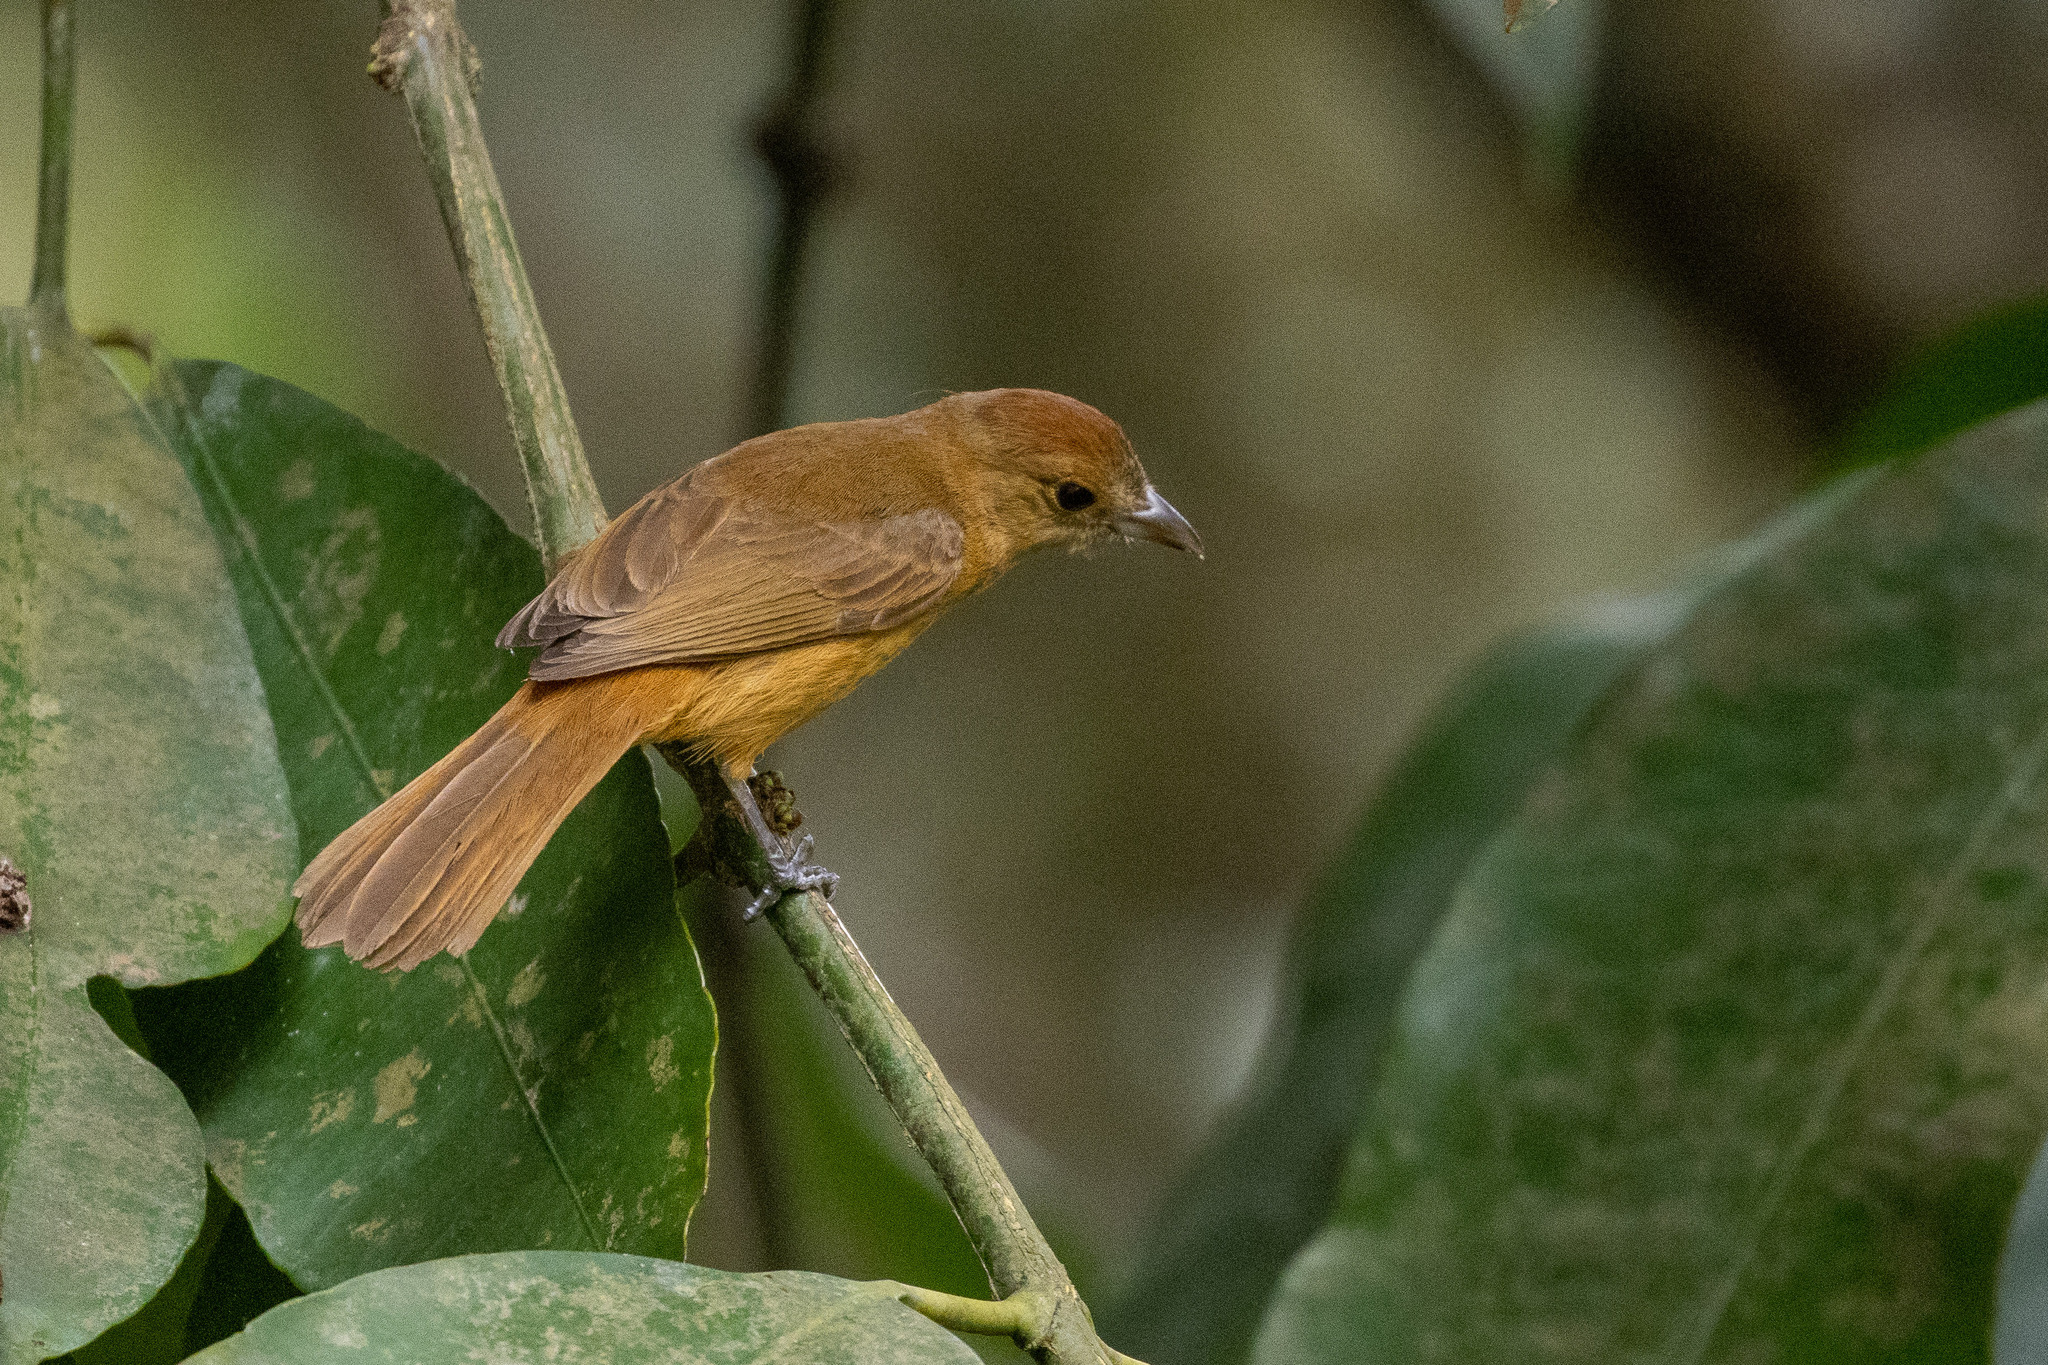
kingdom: Animalia
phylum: Chordata
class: Aves
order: Passeriformes
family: Thraupidae
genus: Loriotus
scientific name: Loriotus cristatus
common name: Flame-crested tanager
